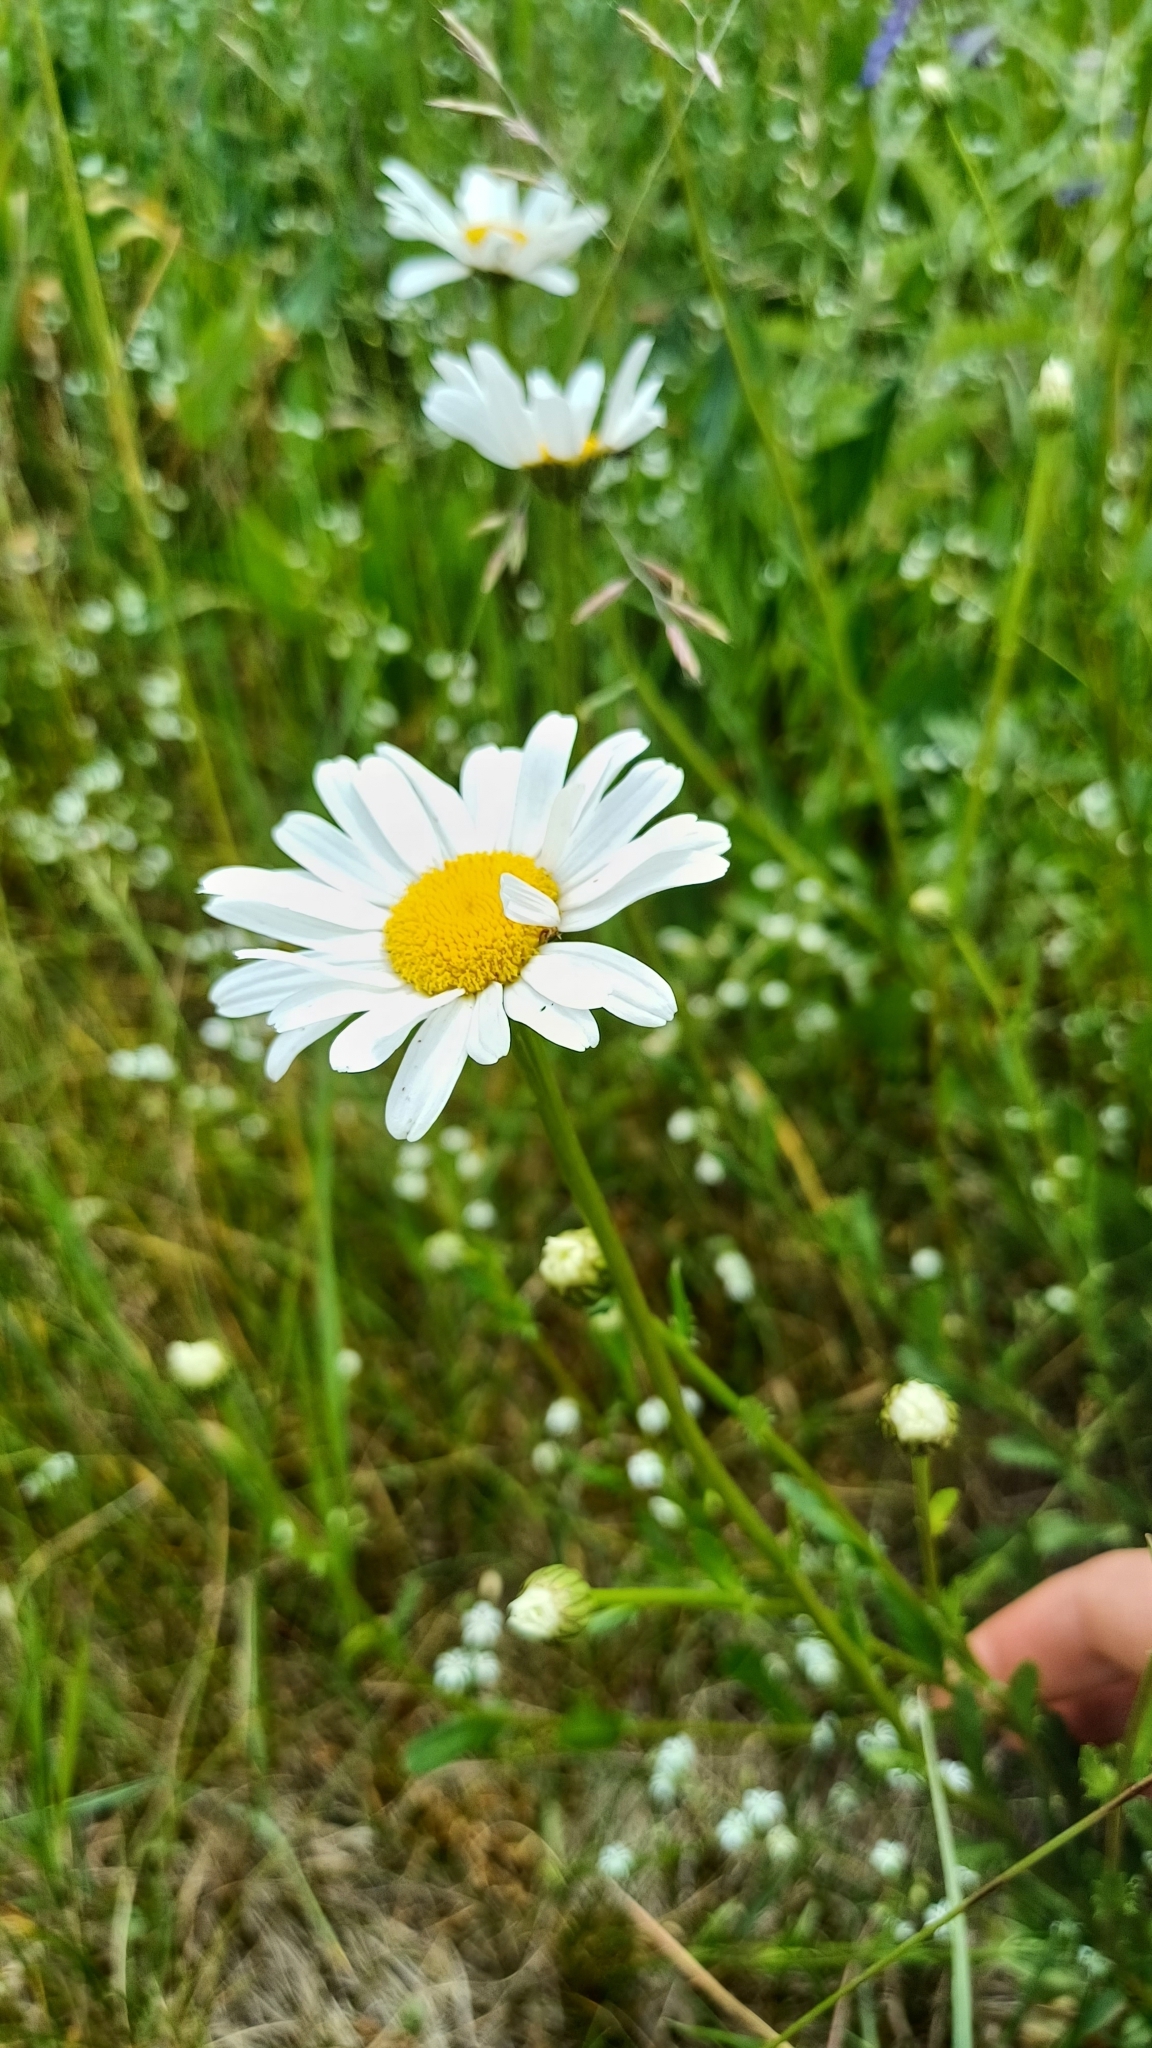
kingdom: Plantae
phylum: Tracheophyta
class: Magnoliopsida
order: Asterales
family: Asteraceae
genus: Leucanthemum
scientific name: Leucanthemum vulgare
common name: Oxeye daisy
